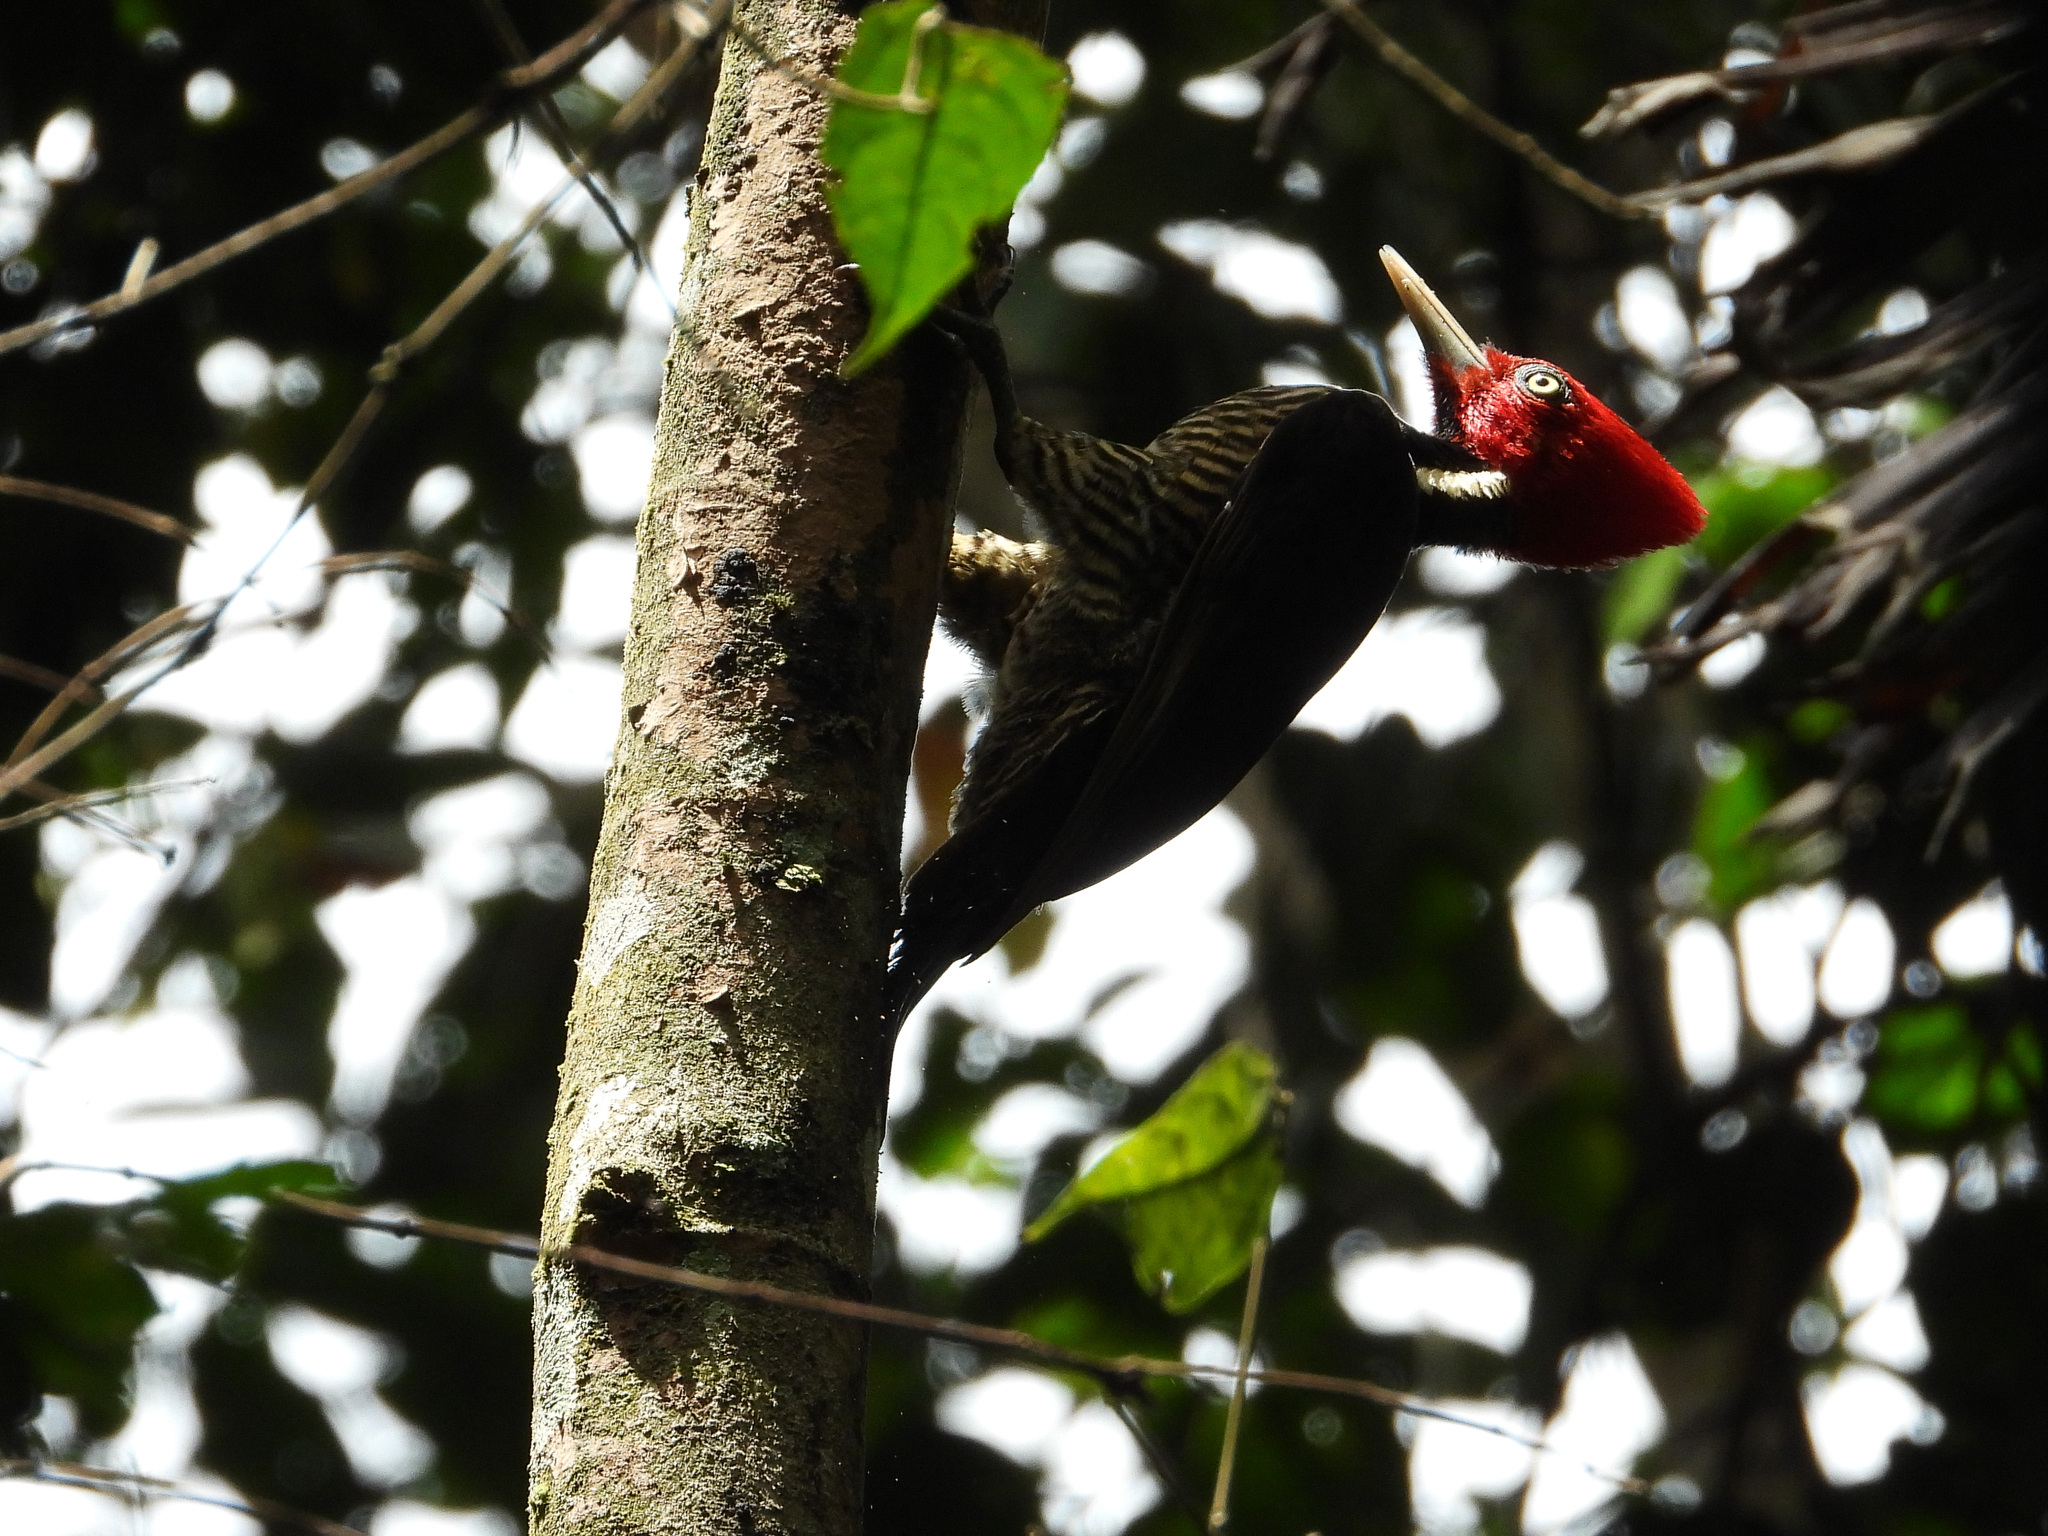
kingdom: Animalia
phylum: Chordata
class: Aves
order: Piciformes
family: Picidae
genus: Campephilus
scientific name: Campephilus guatemalensis
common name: Pale-billed woodpecker
